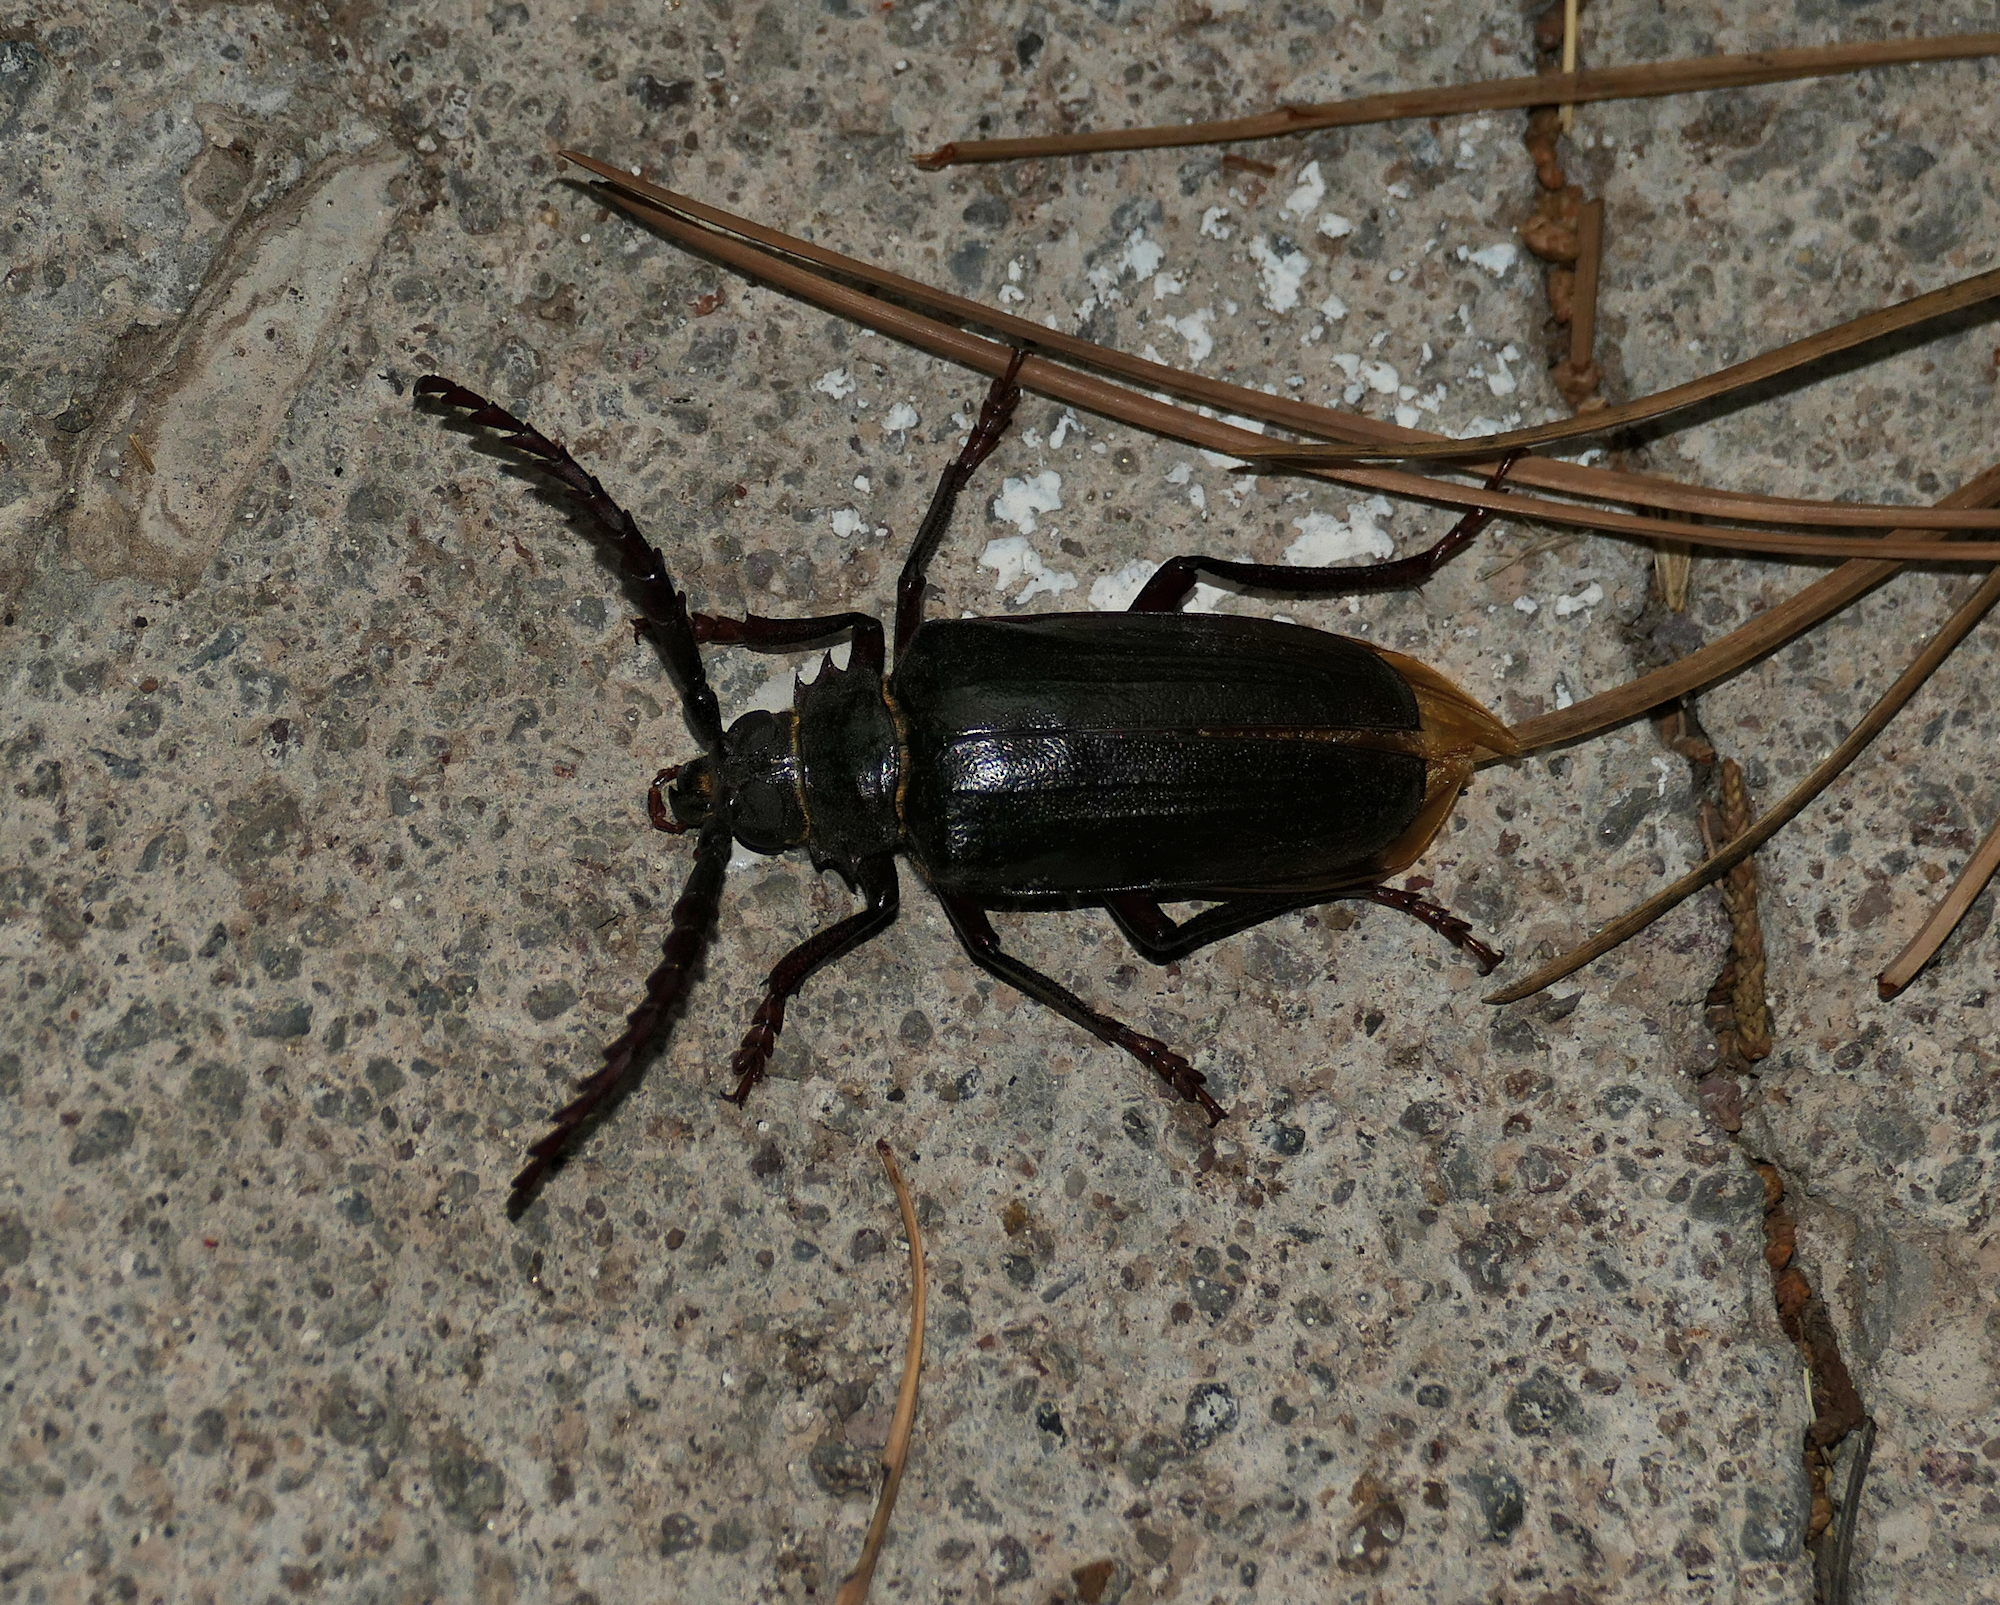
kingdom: Animalia
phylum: Arthropoda
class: Insecta
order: Coleoptera
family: Cerambycidae
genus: Prionus
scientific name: Prionus heroicus
